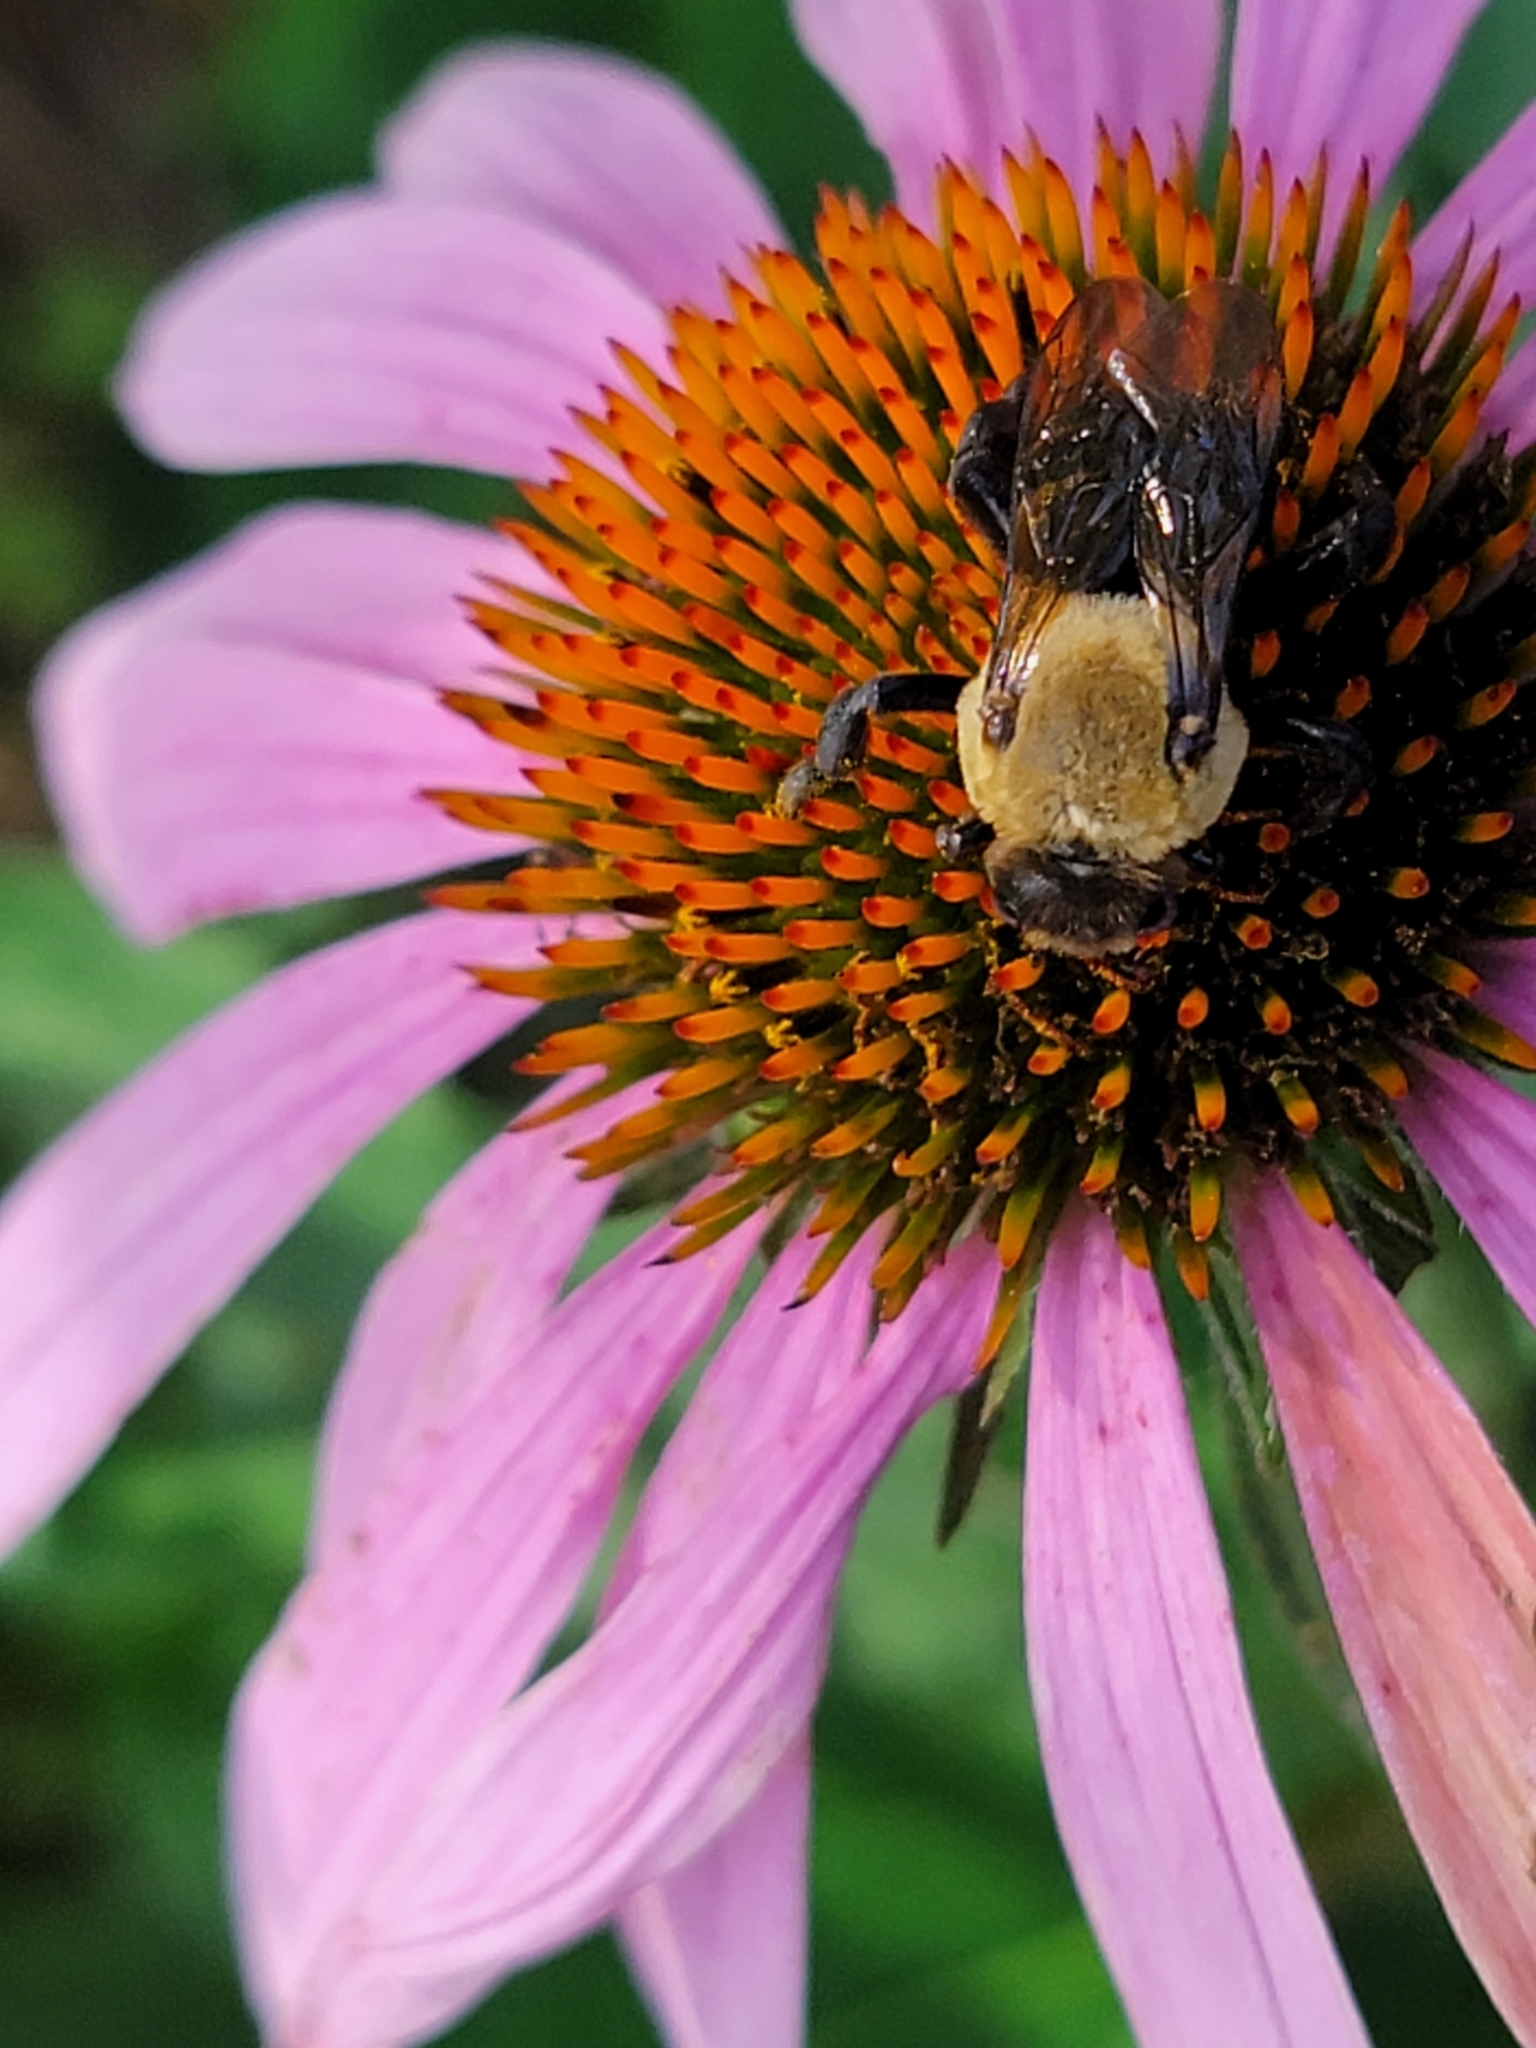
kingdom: Animalia
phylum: Arthropoda
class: Insecta
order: Hymenoptera
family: Apidae
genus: Ptilothrix
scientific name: Ptilothrix bombiformis
